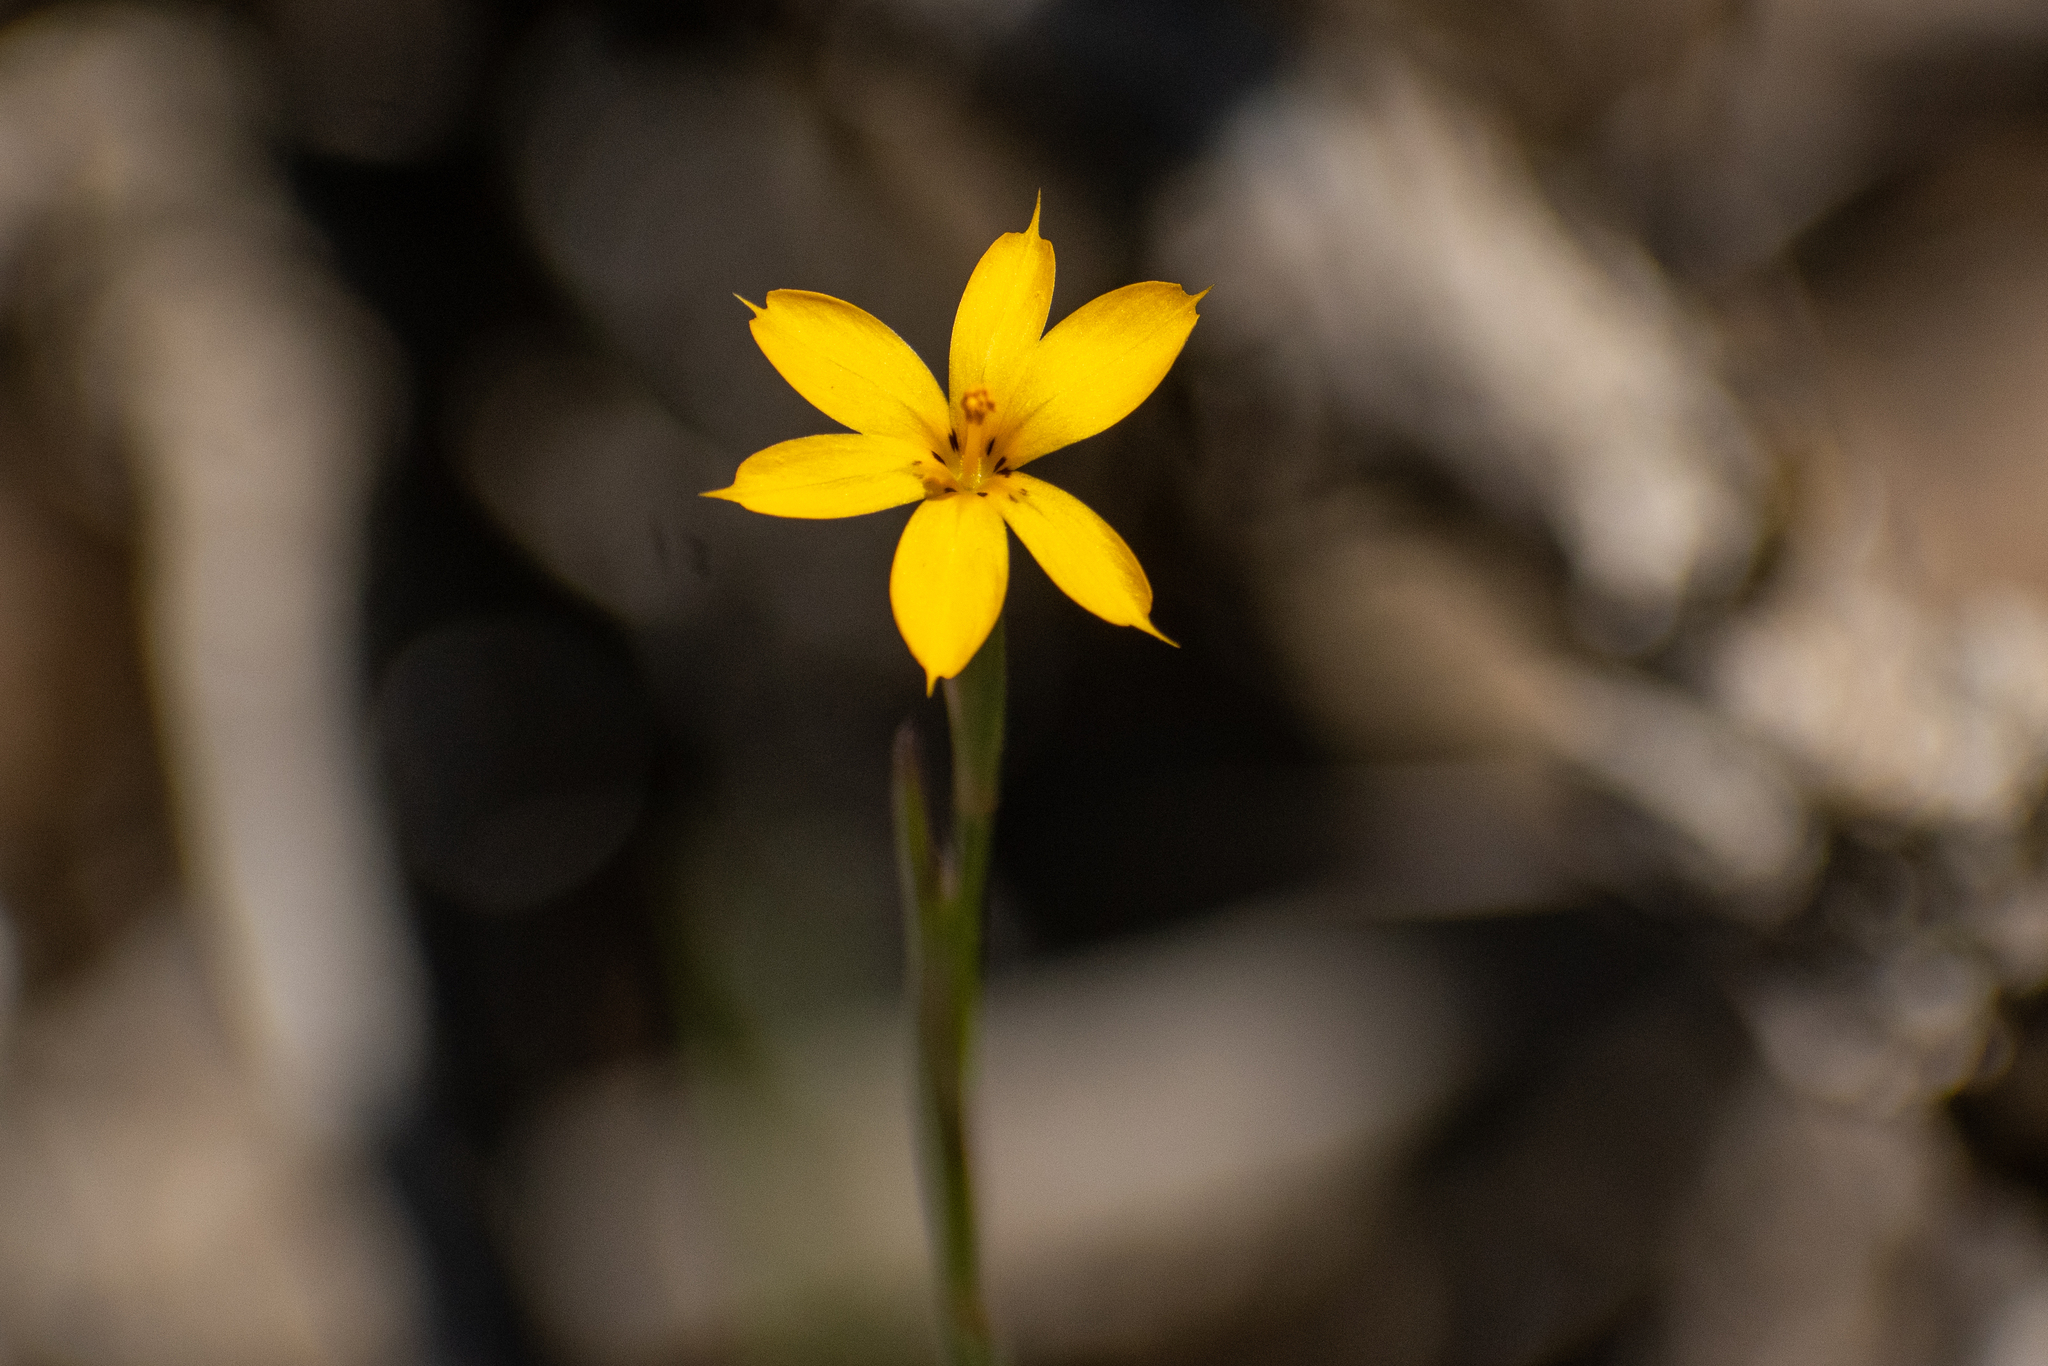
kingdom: Plantae
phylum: Tracheophyta
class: Liliopsida
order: Asparagales
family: Iridaceae
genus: Sisyrinchium
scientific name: Sisyrinchium patagonicum
